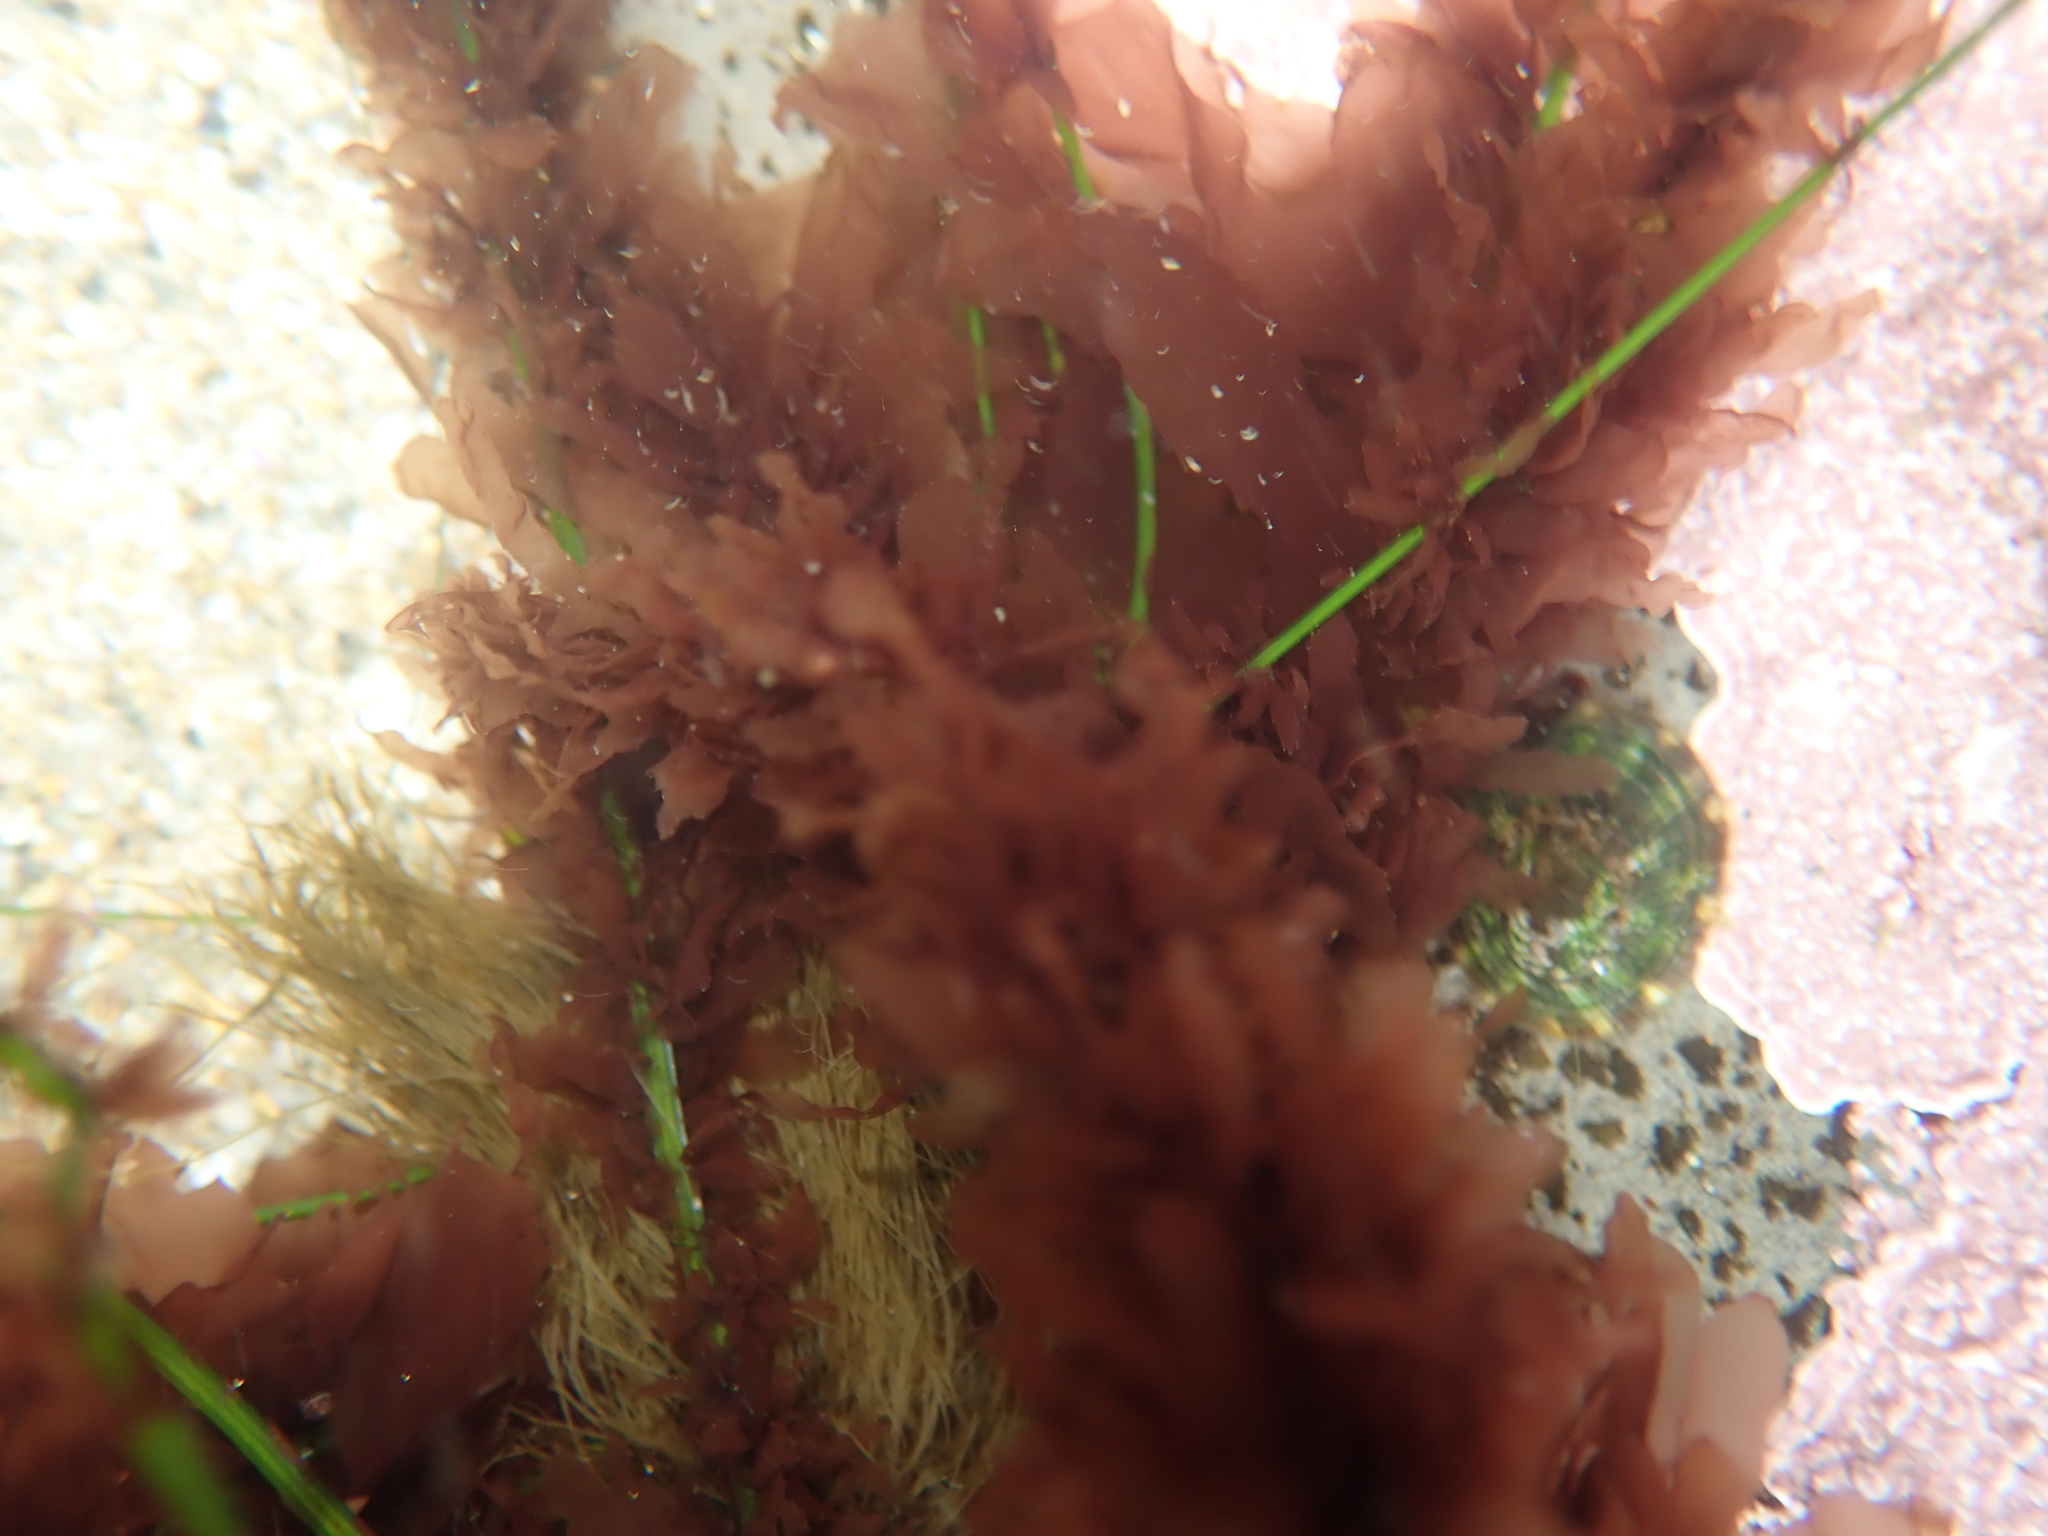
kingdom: Plantae
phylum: Rhodophyta
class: Compsopogonophyceae
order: Erythropeltidales
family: Erythrotrichiaceae
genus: Smithora
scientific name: Smithora naiadum
